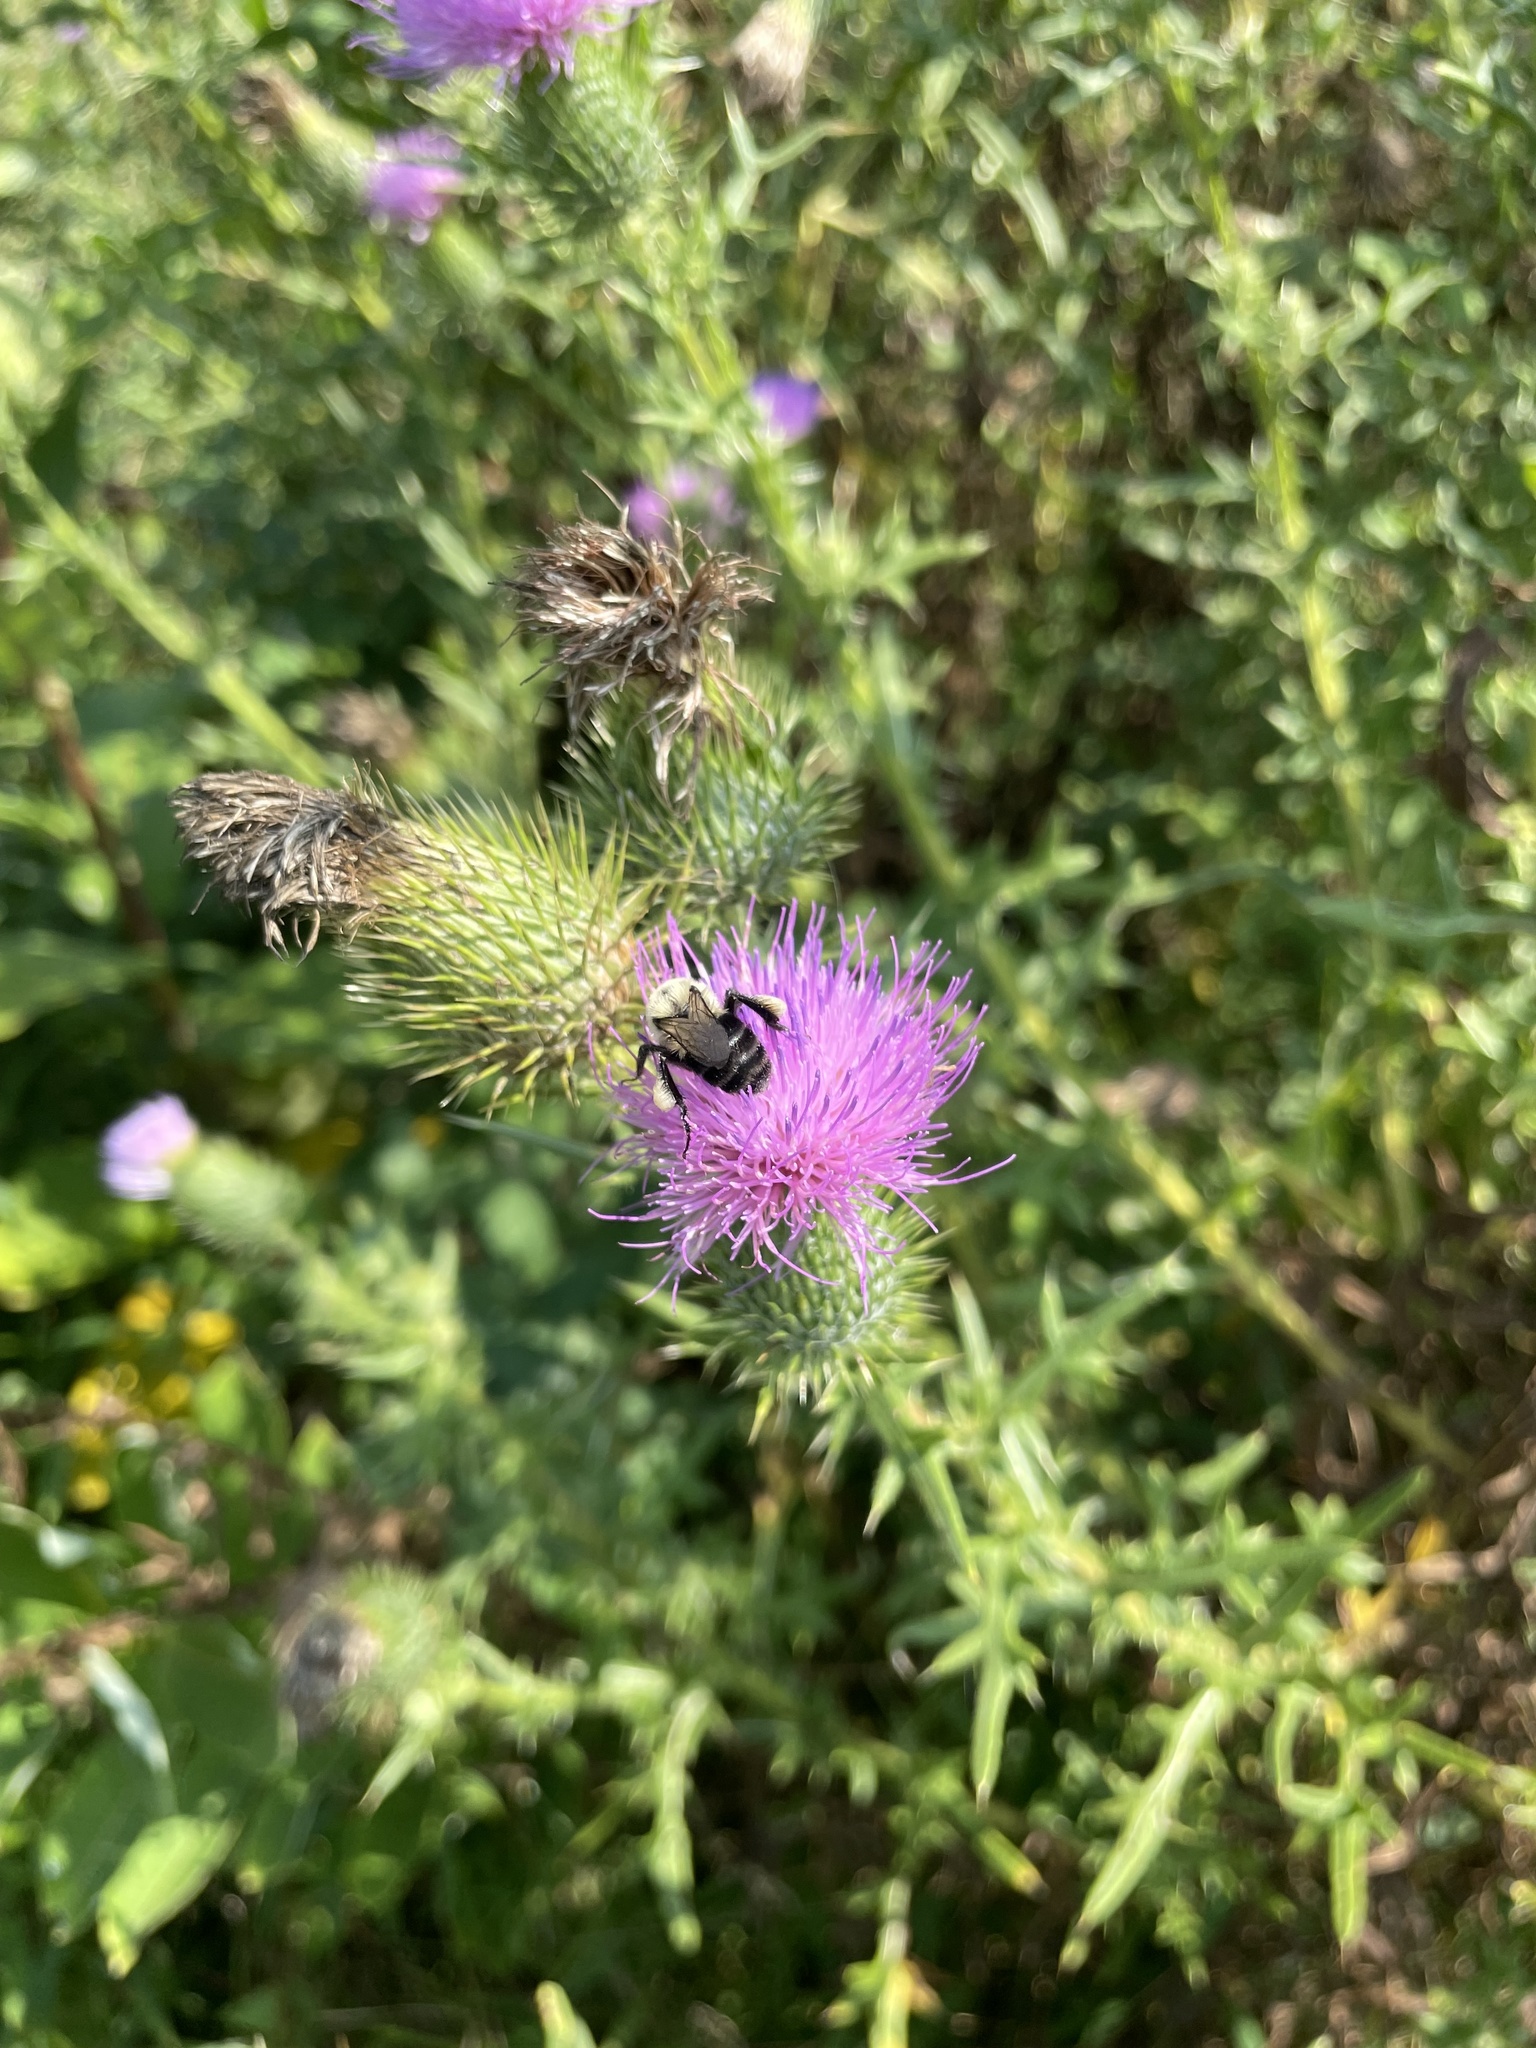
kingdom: Animalia
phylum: Arthropoda
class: Insecta
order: Hymenoptera
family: Apidae
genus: Bombus
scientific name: Bombus impatiens
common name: Common eastern bumble bee
